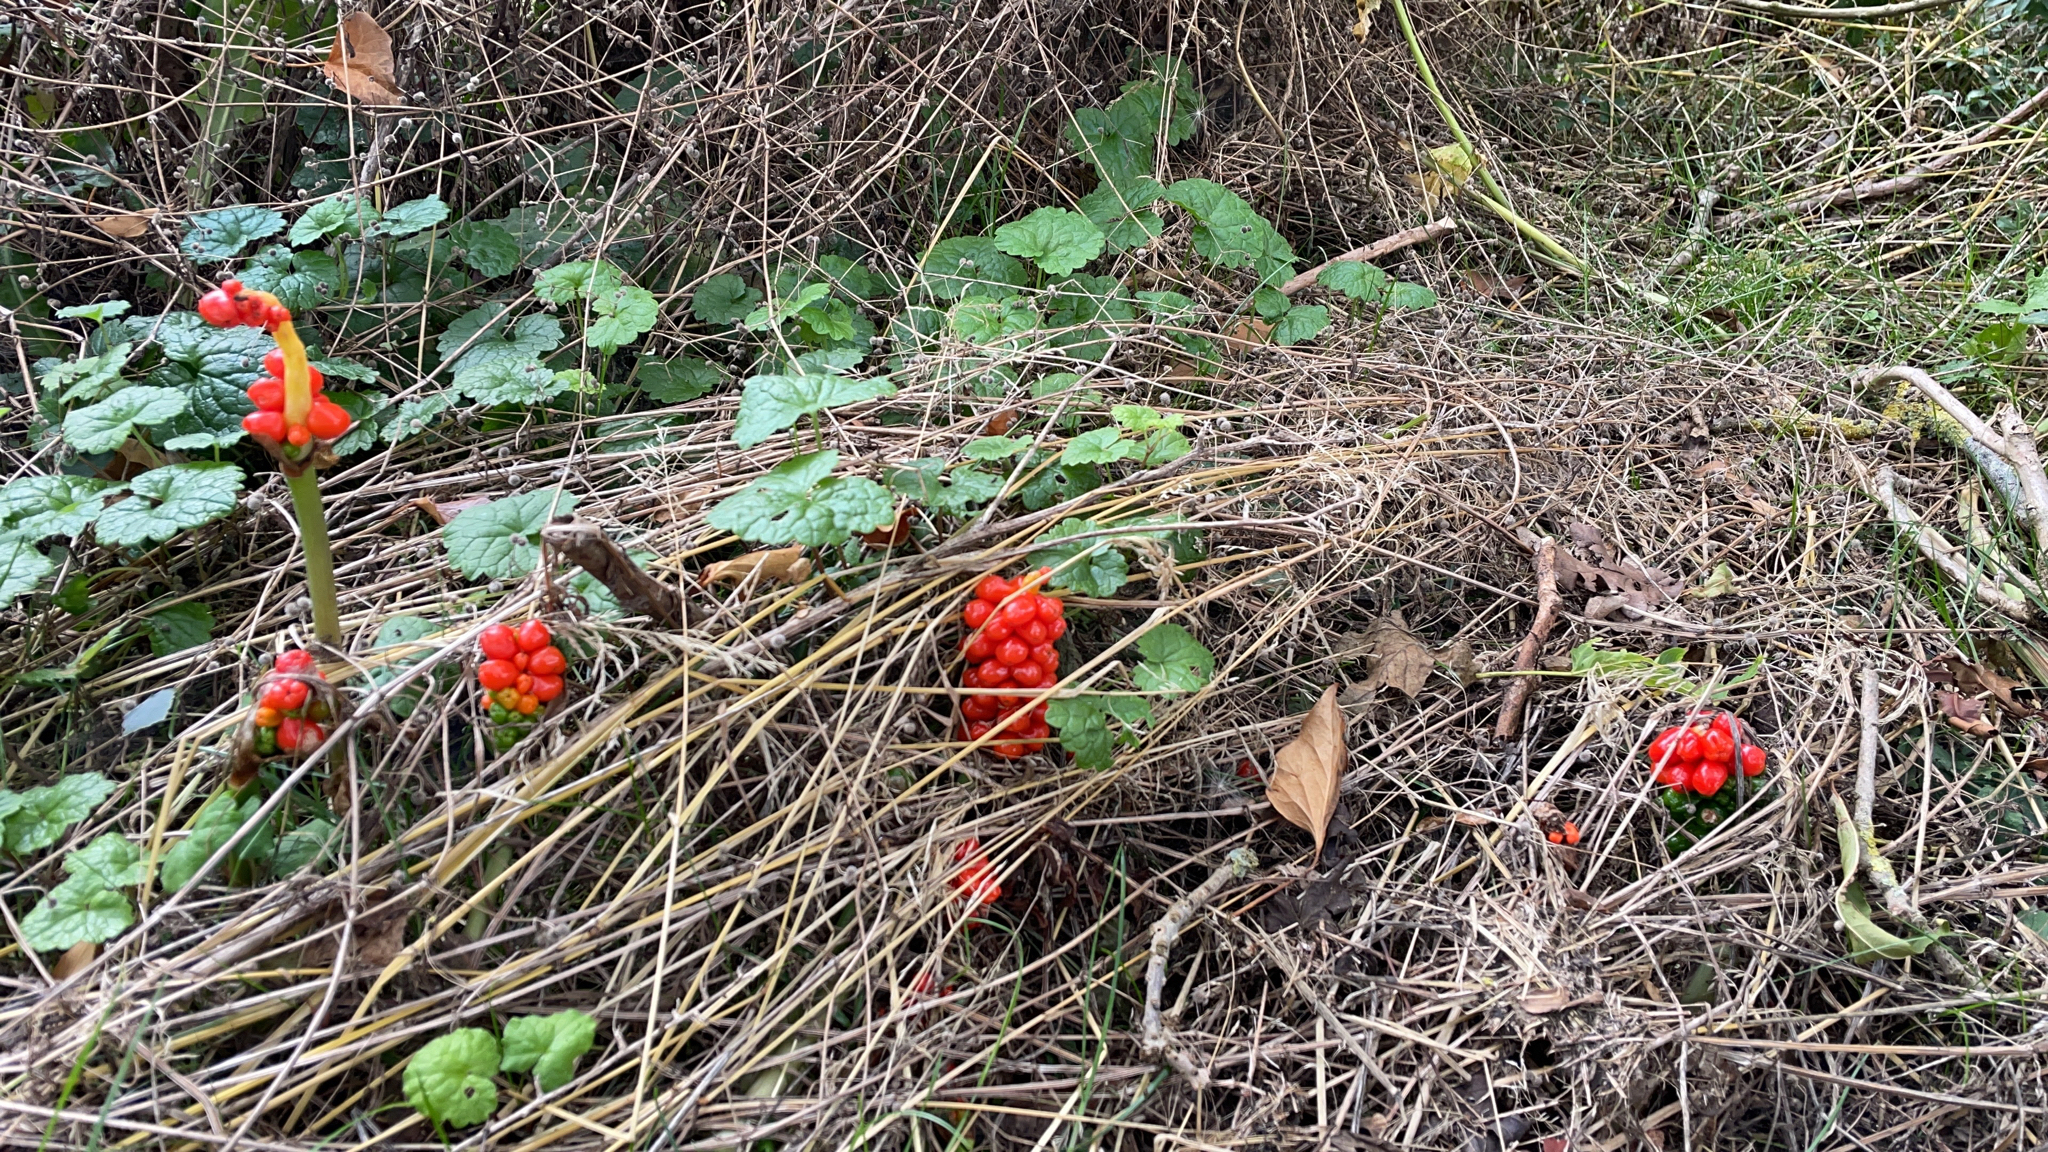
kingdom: Plantae
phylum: Tracheophyta
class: Liliopsida
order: Alismatales
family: Araceae
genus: Arum
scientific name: Arum maculatum
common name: Lords-and-ladies
